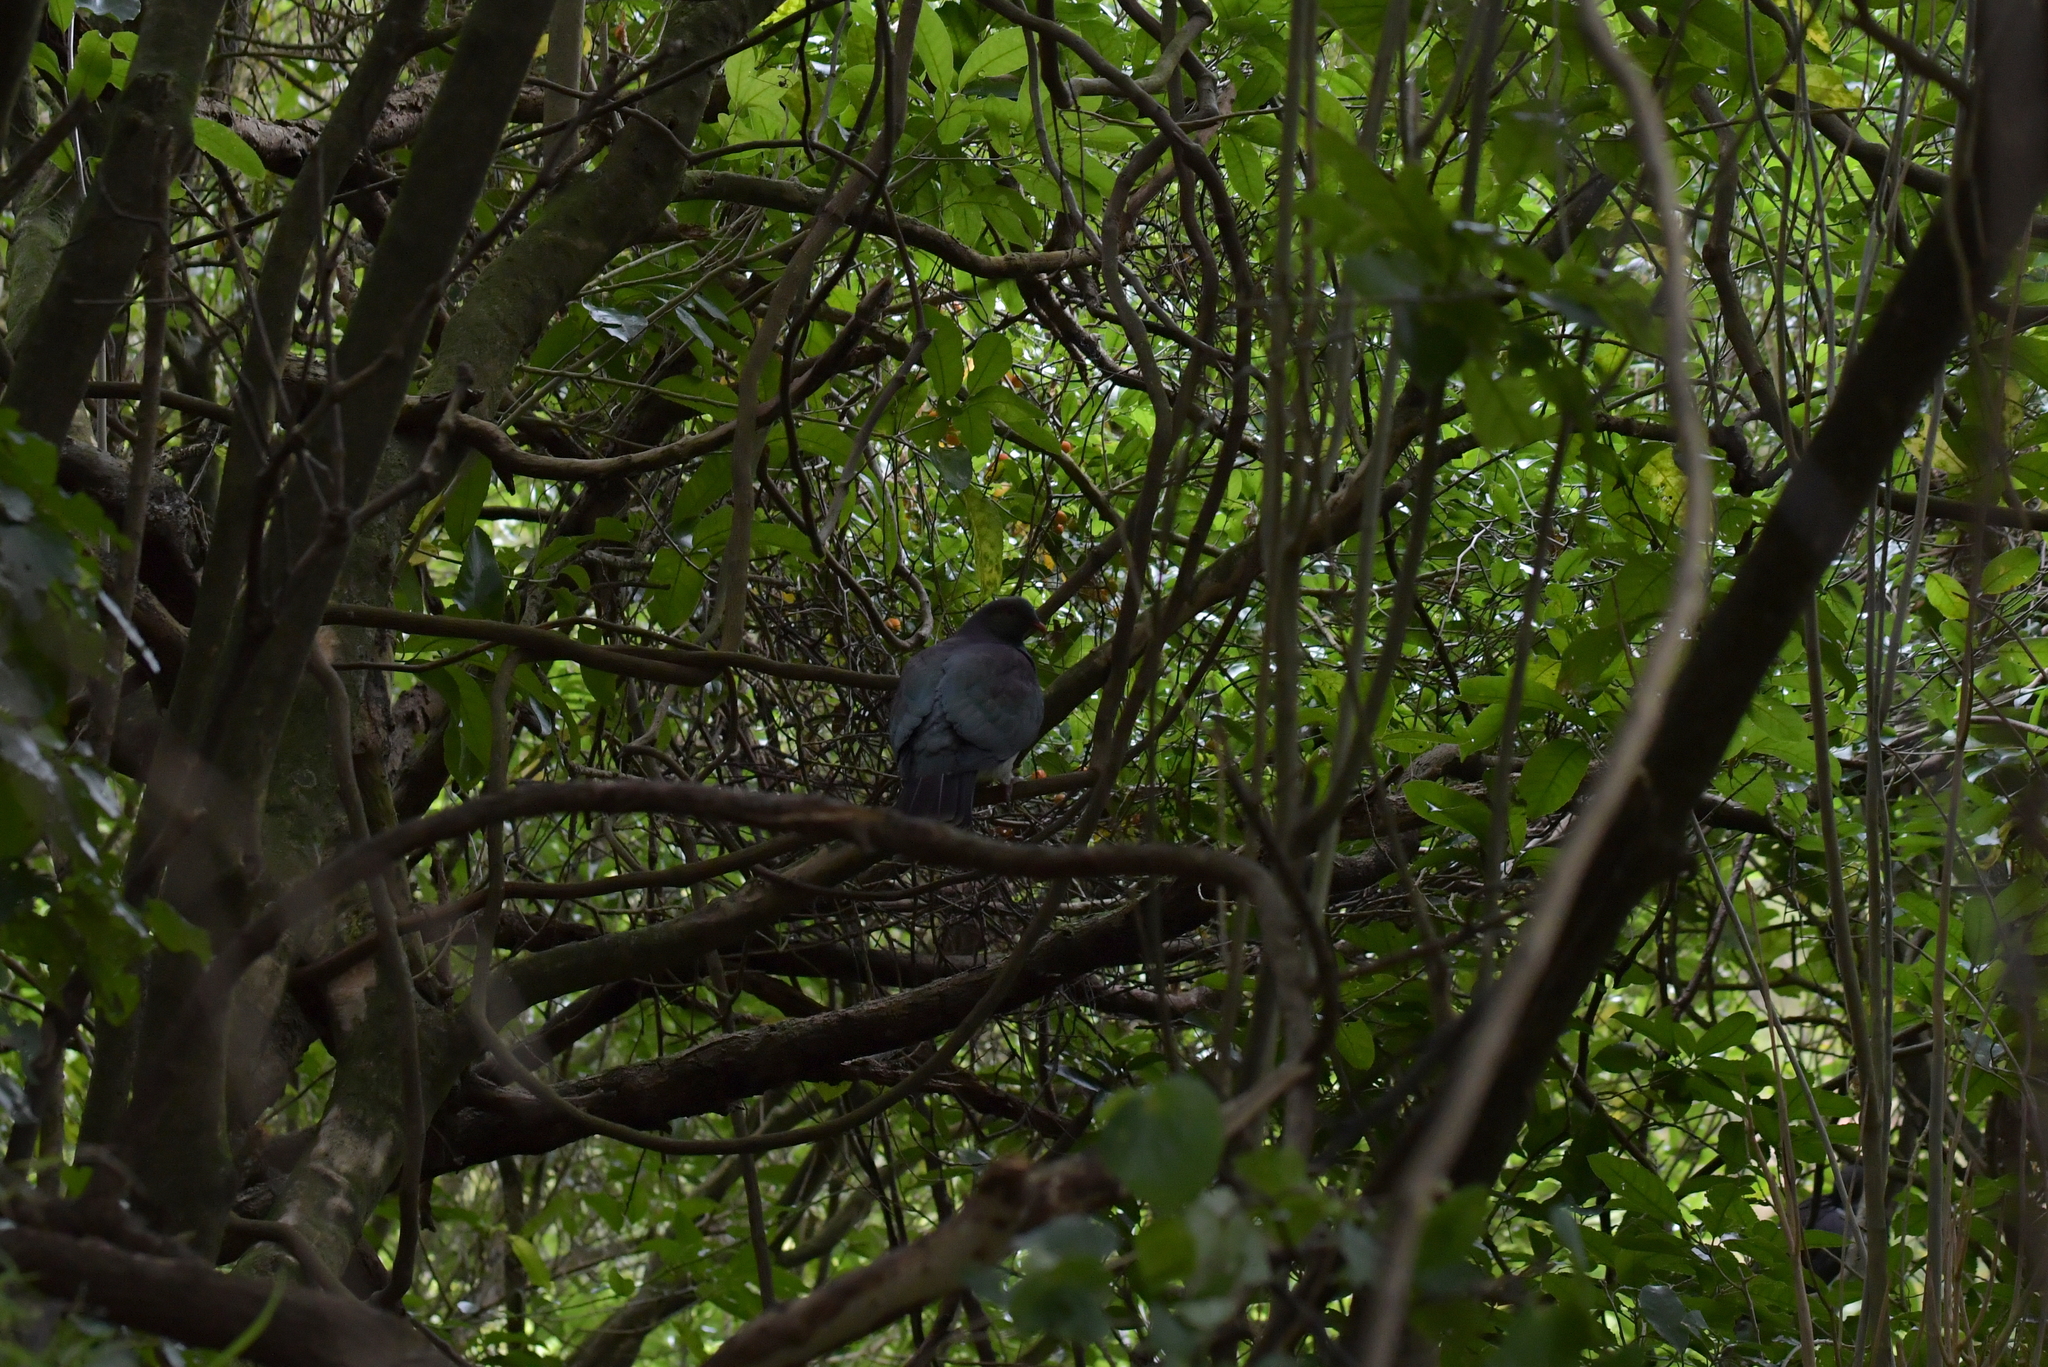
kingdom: Animalia
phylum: Chordata
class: Aves
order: Columbiformes
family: Columbidae
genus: Hemiphaga
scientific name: Hemiphaga novaeseelandiae
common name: New zealand pigeon
